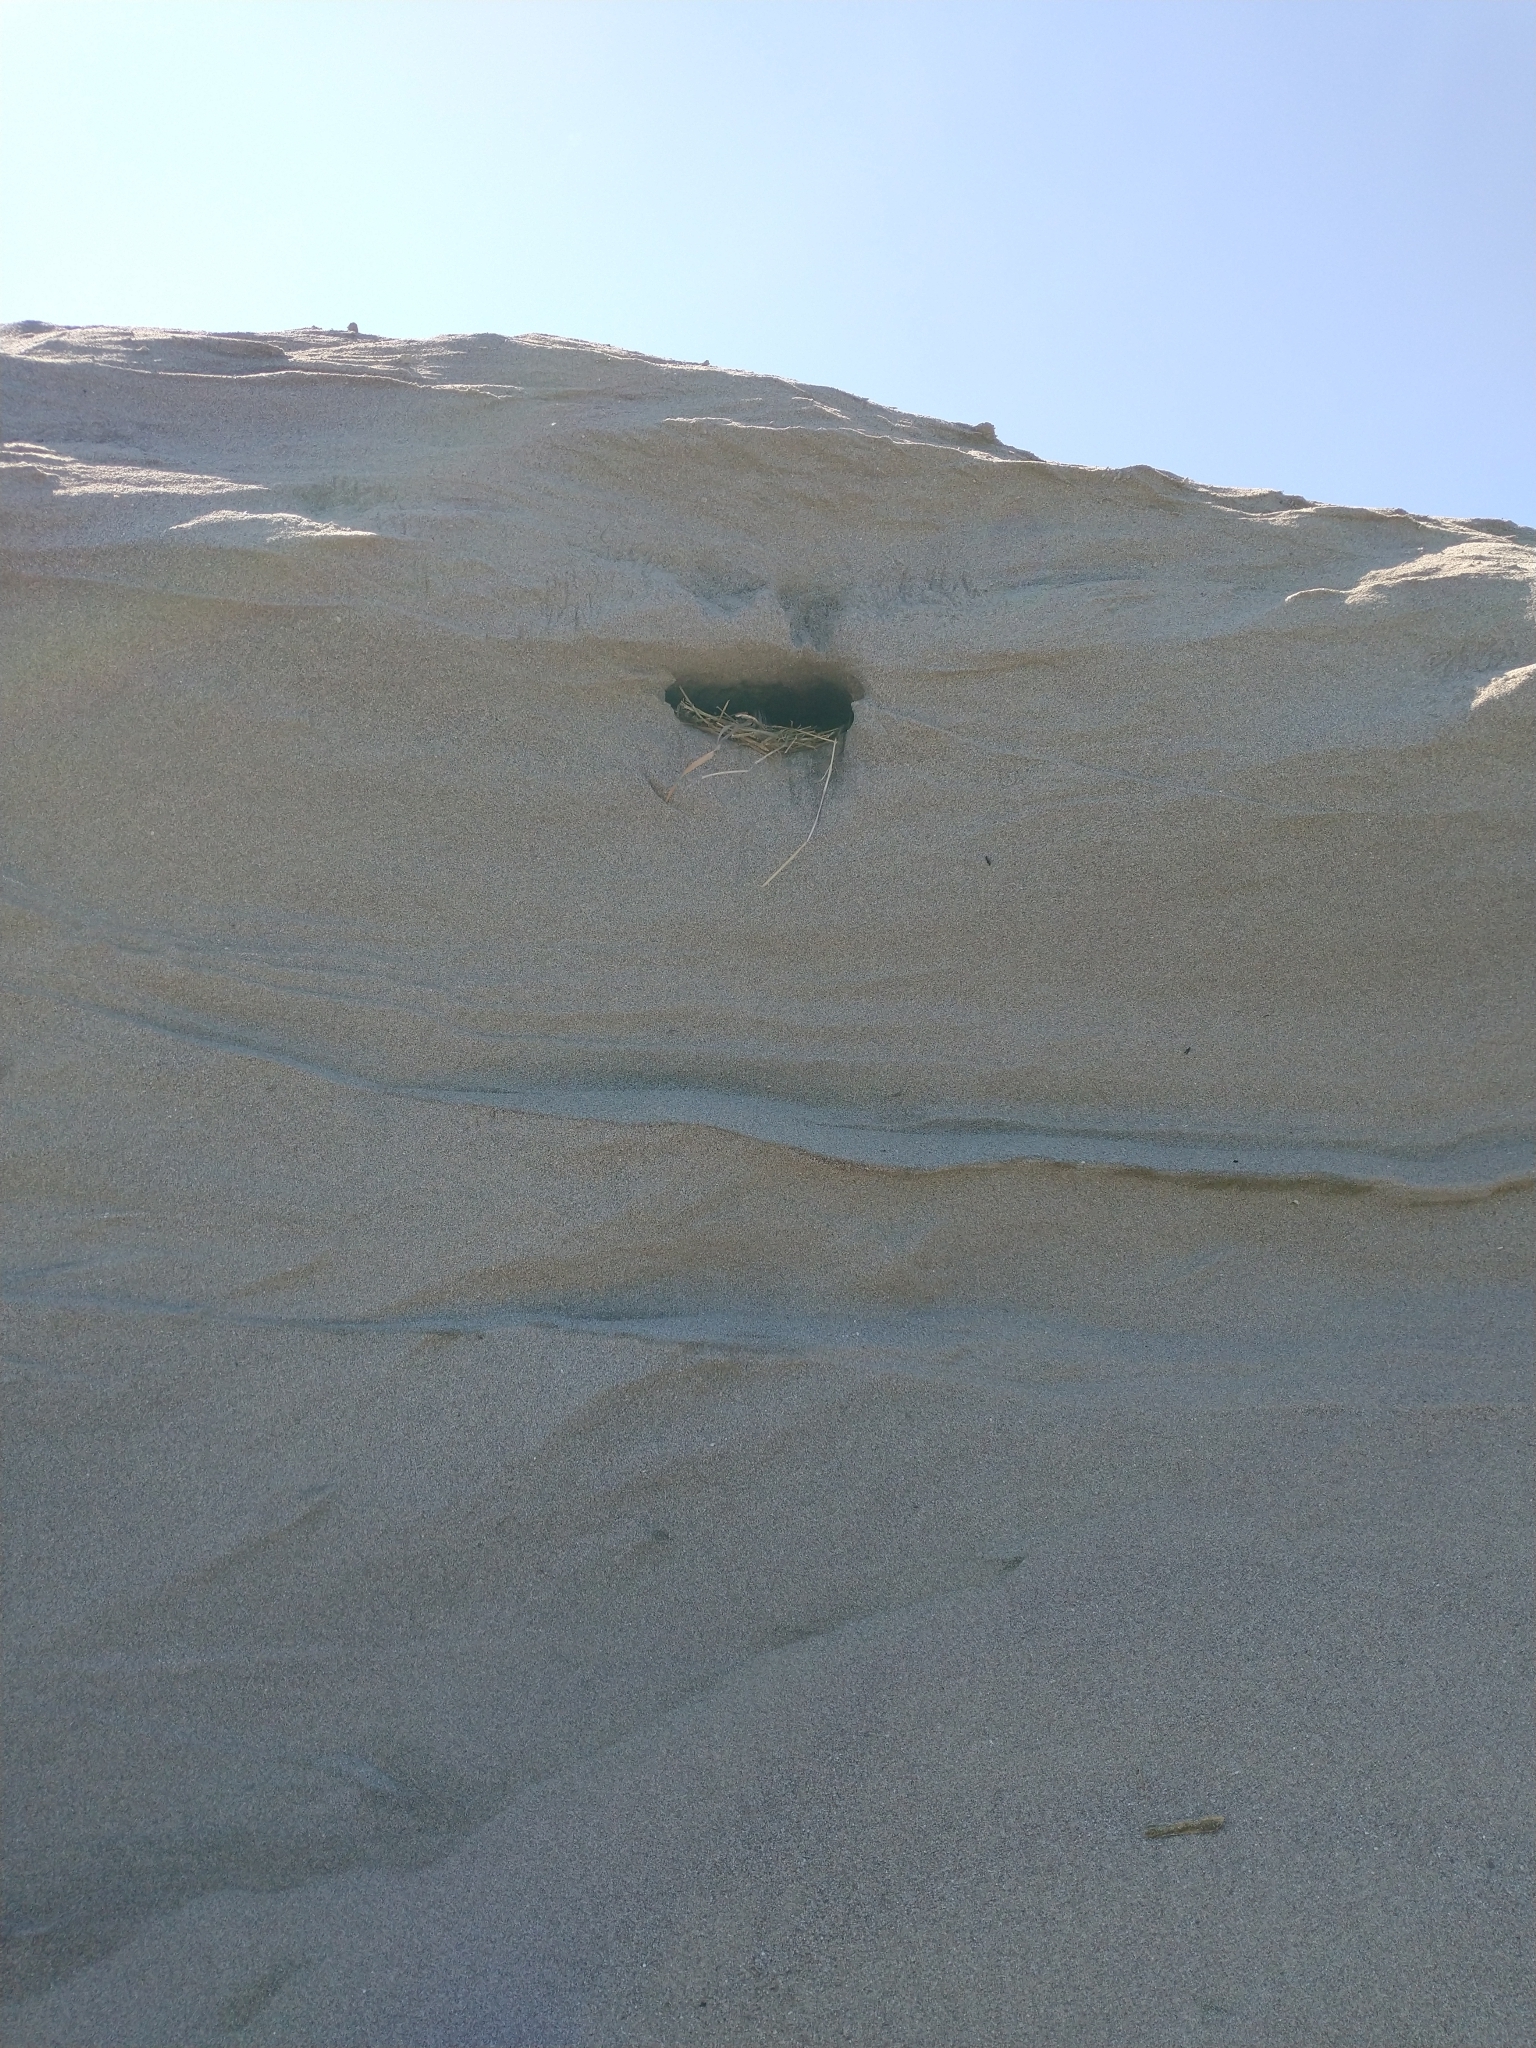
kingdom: Animalia
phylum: Chordata
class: Aves
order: Passeriformes
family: Hirundinidae
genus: Riparia
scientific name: Riparia riparia
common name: Sand martin
